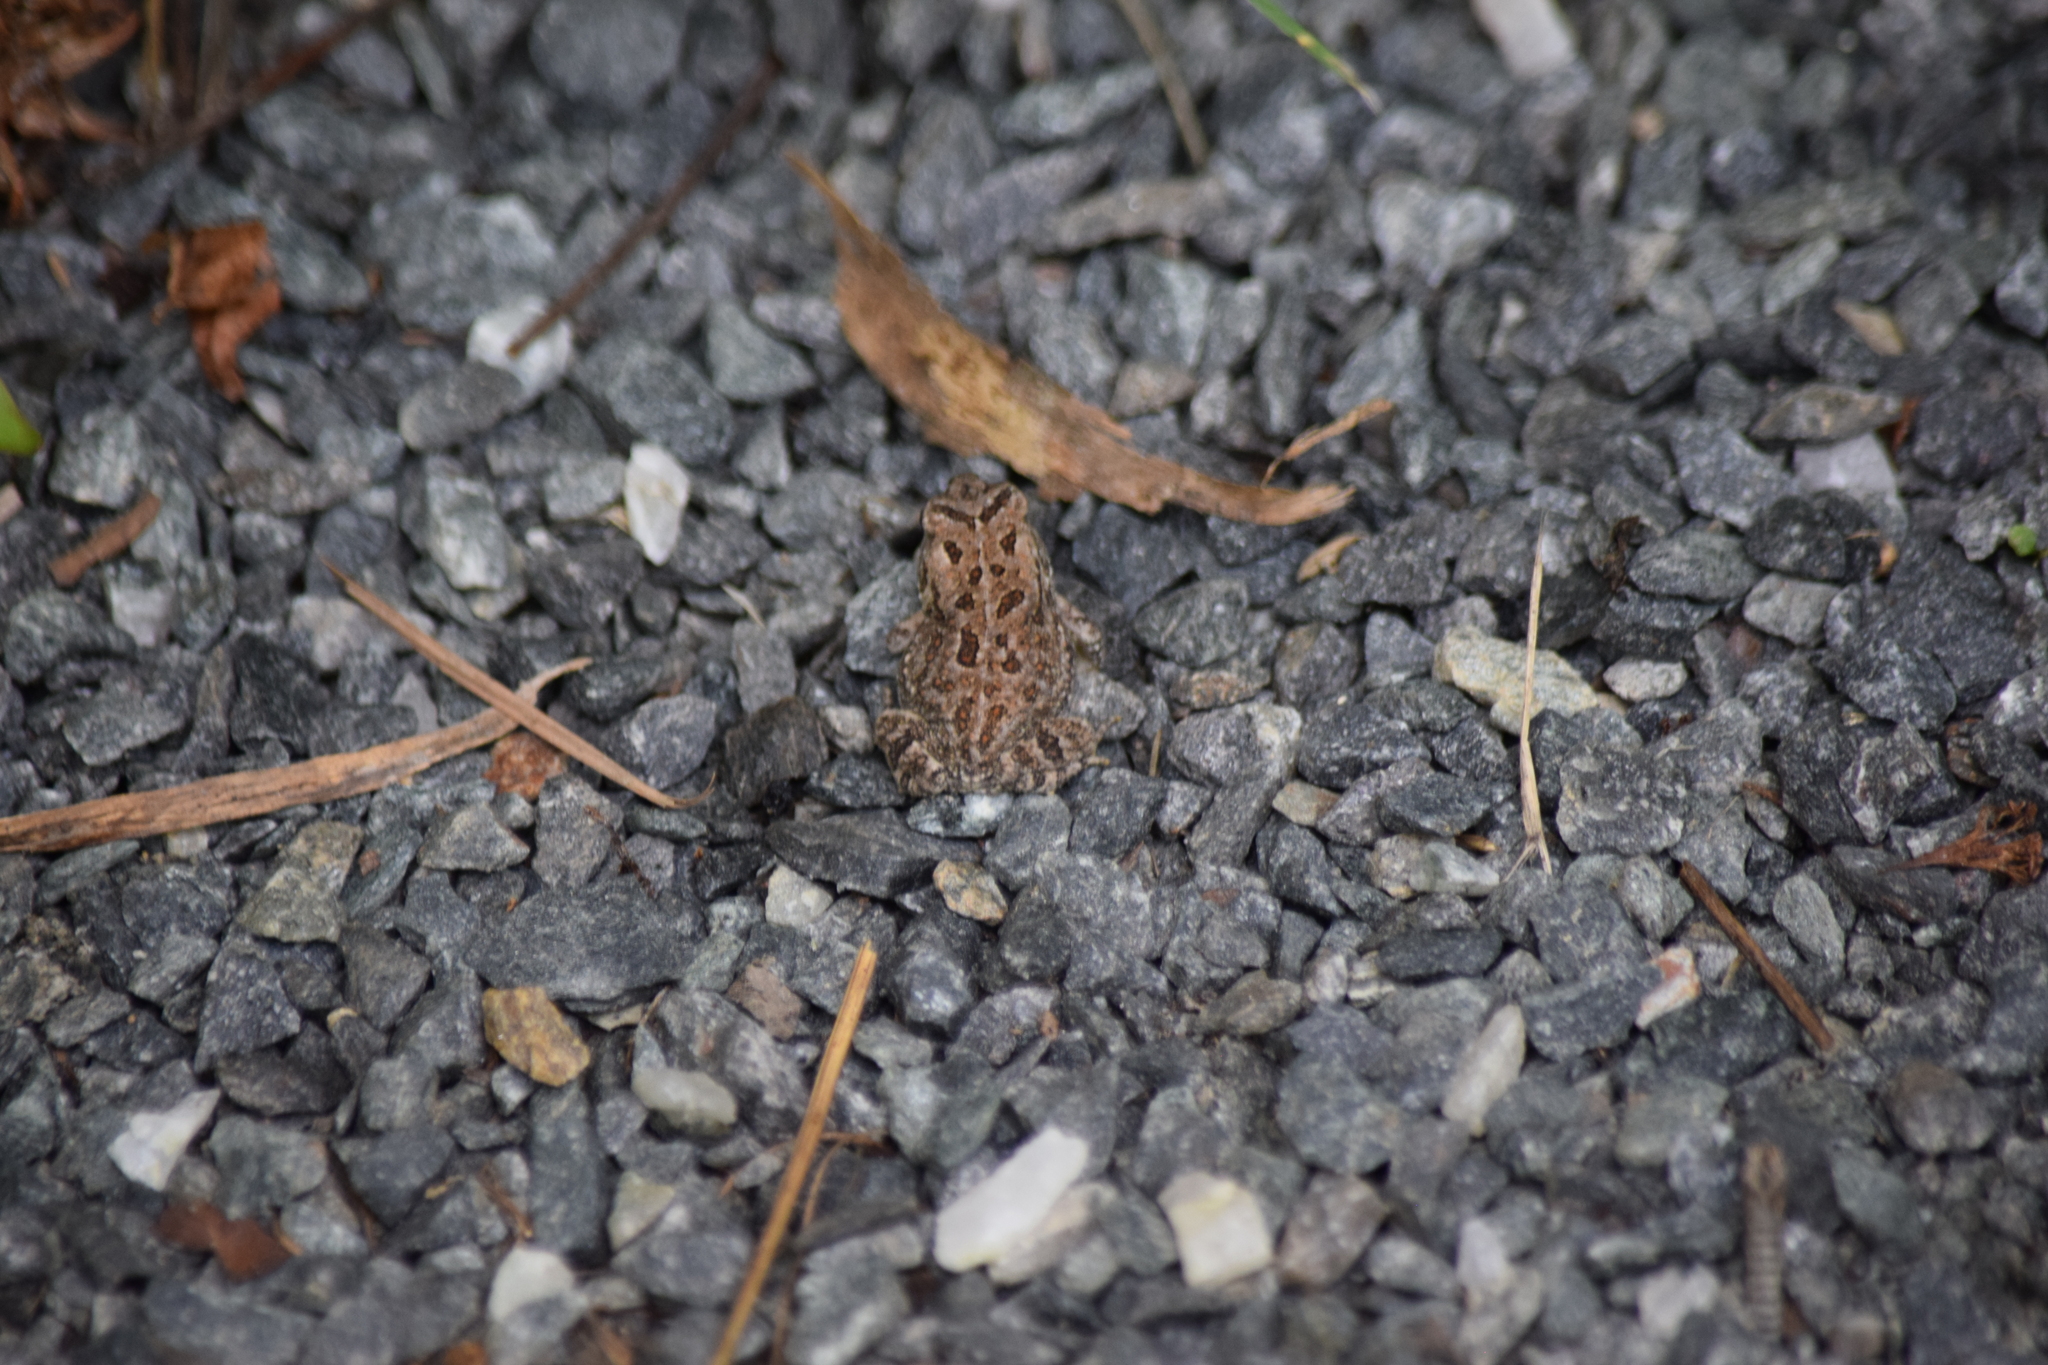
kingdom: Animalia
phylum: Chordata
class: Amphibia
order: Anura
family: Bufonidae
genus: Anaxyrus
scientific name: Anaxyrus fowleri
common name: Fowler's toad
